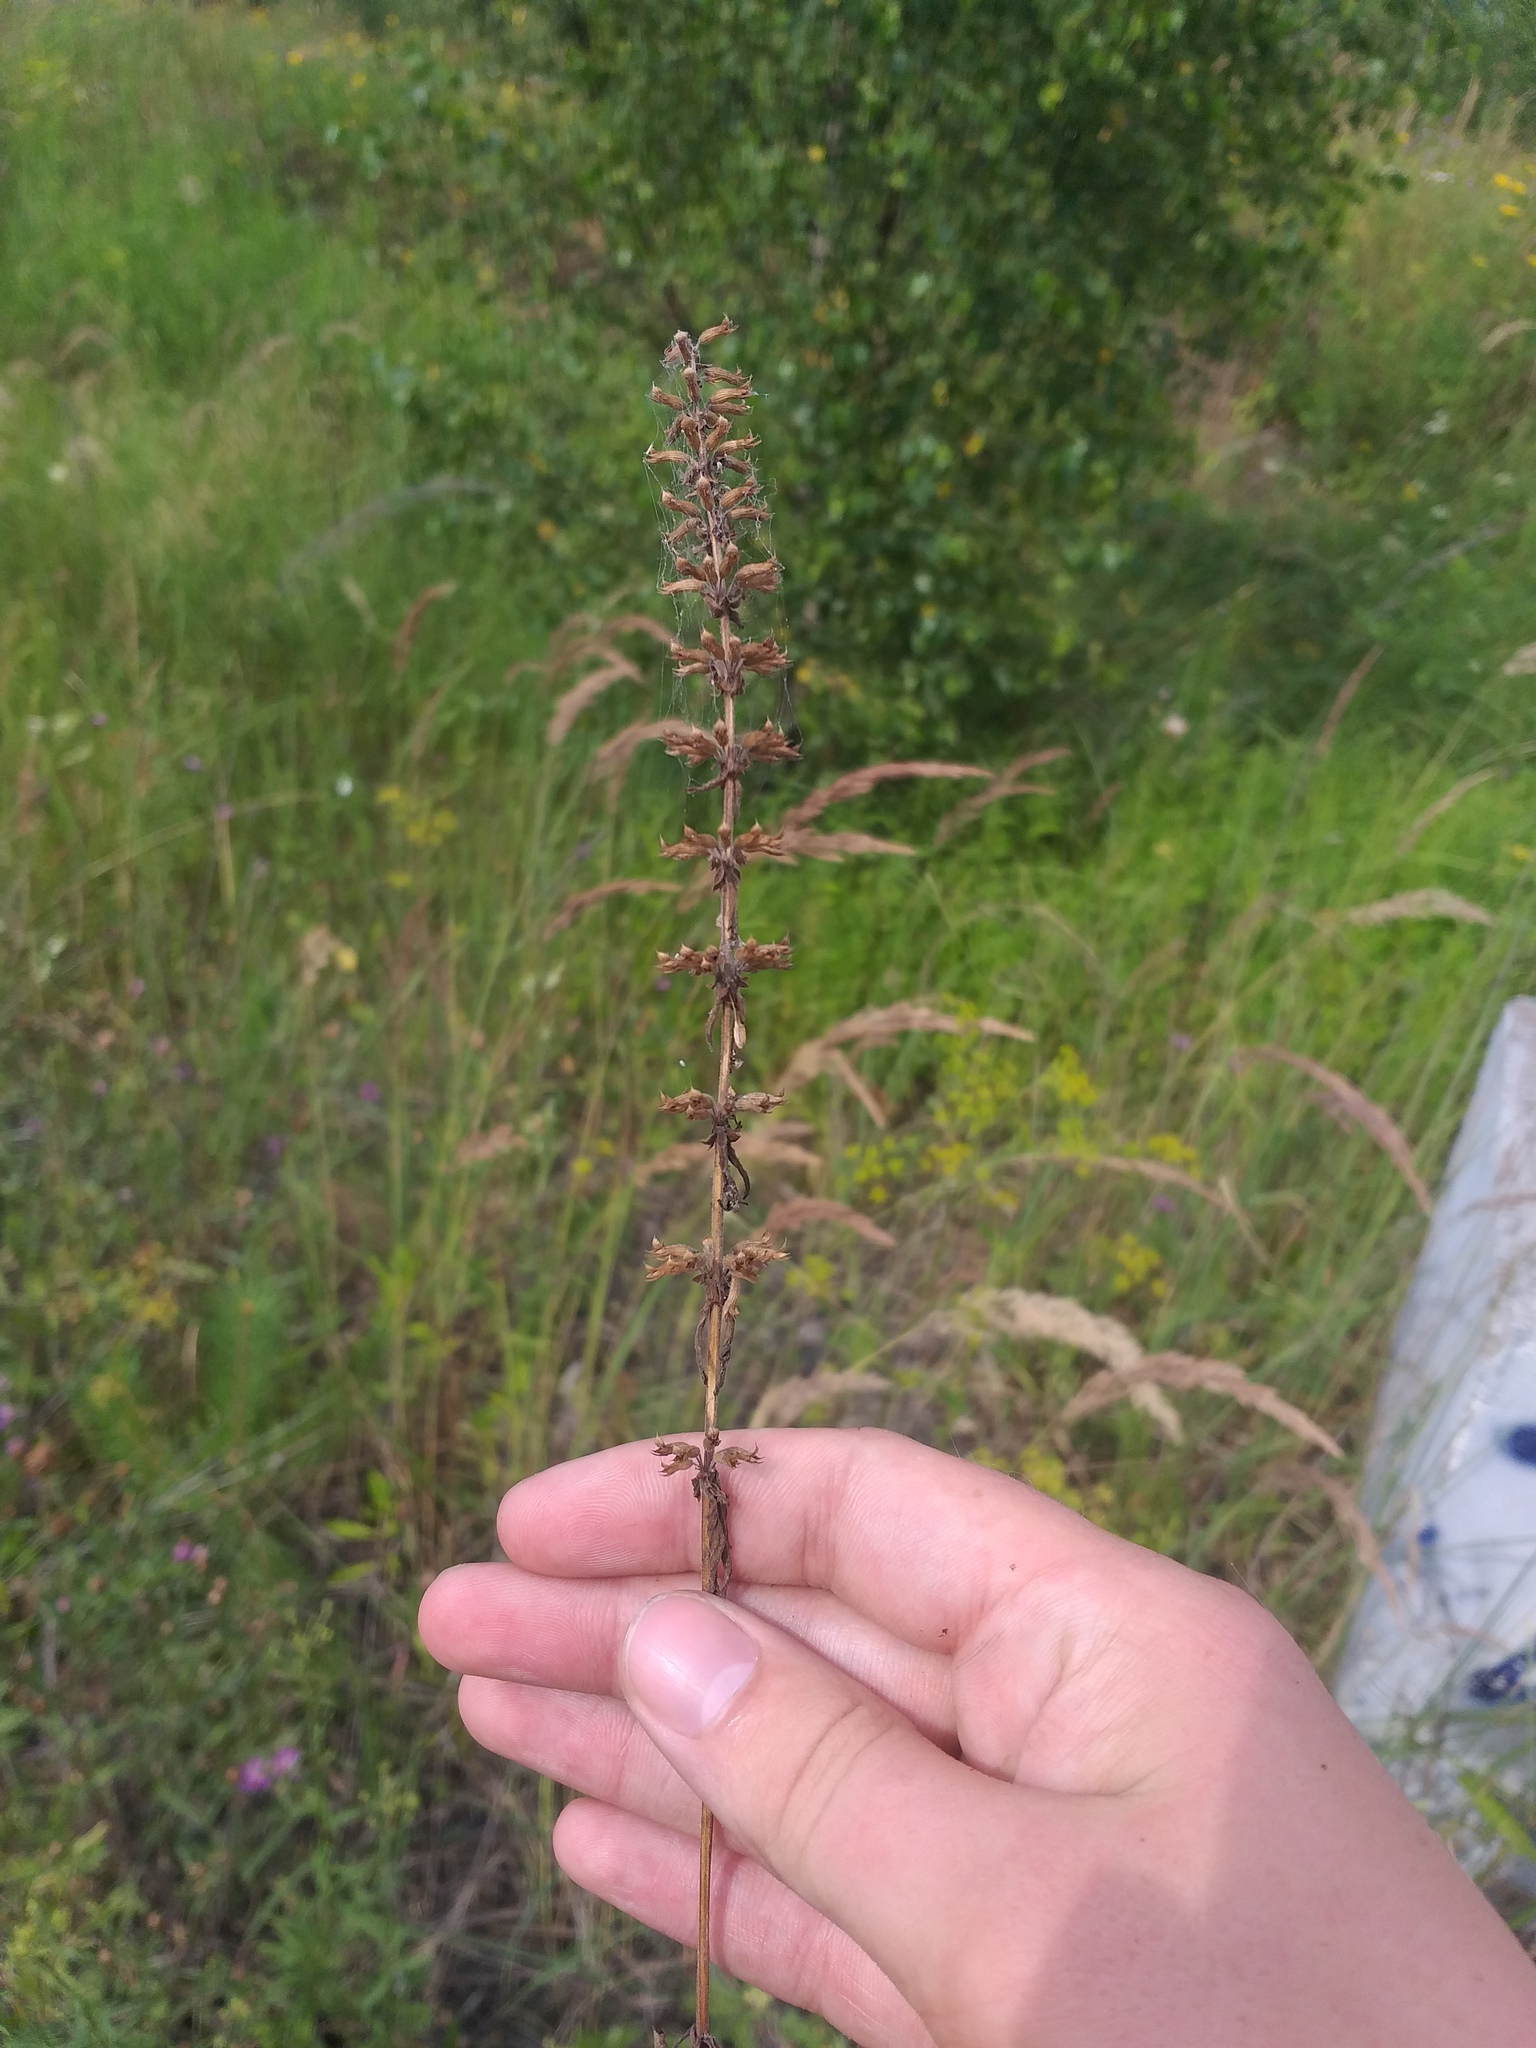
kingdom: Plantae
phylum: Tracheophyta
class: Magnoliopsida
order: Lamiales
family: Lamiaceae
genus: Dracocephalum
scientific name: Dracocephalum thymiflorum
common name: Thymeleaf dragonhead
